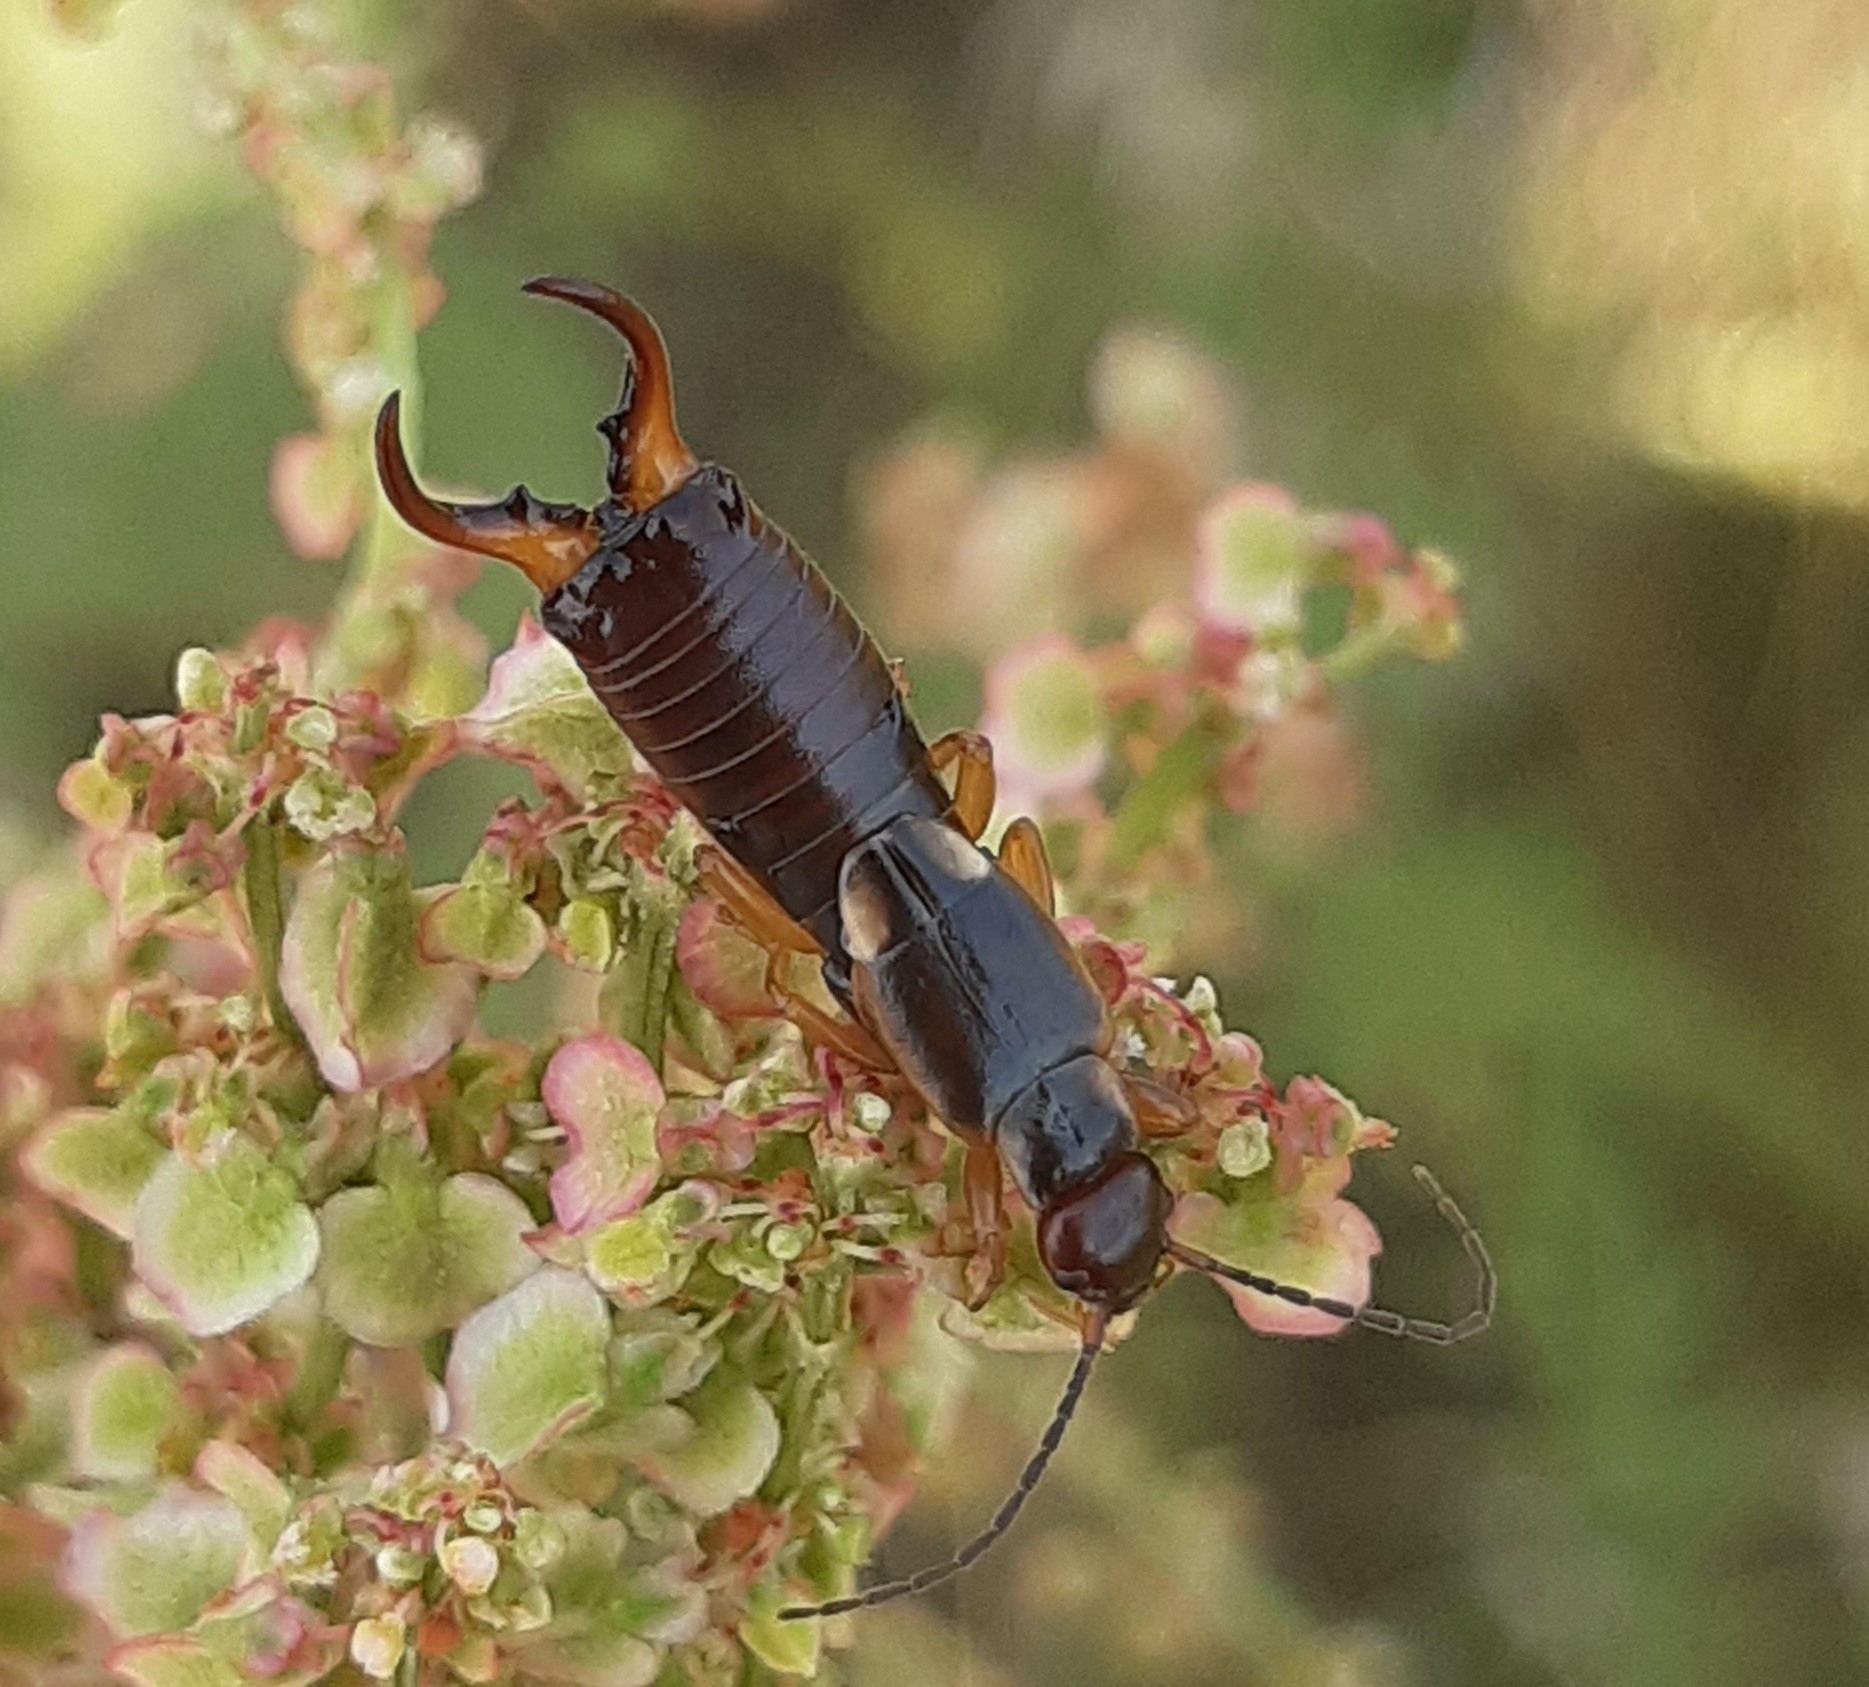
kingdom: Animalia
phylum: Arthropoda
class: Insecta
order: Dermaptera
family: Forficulidae
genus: Forficula
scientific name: Forficula
